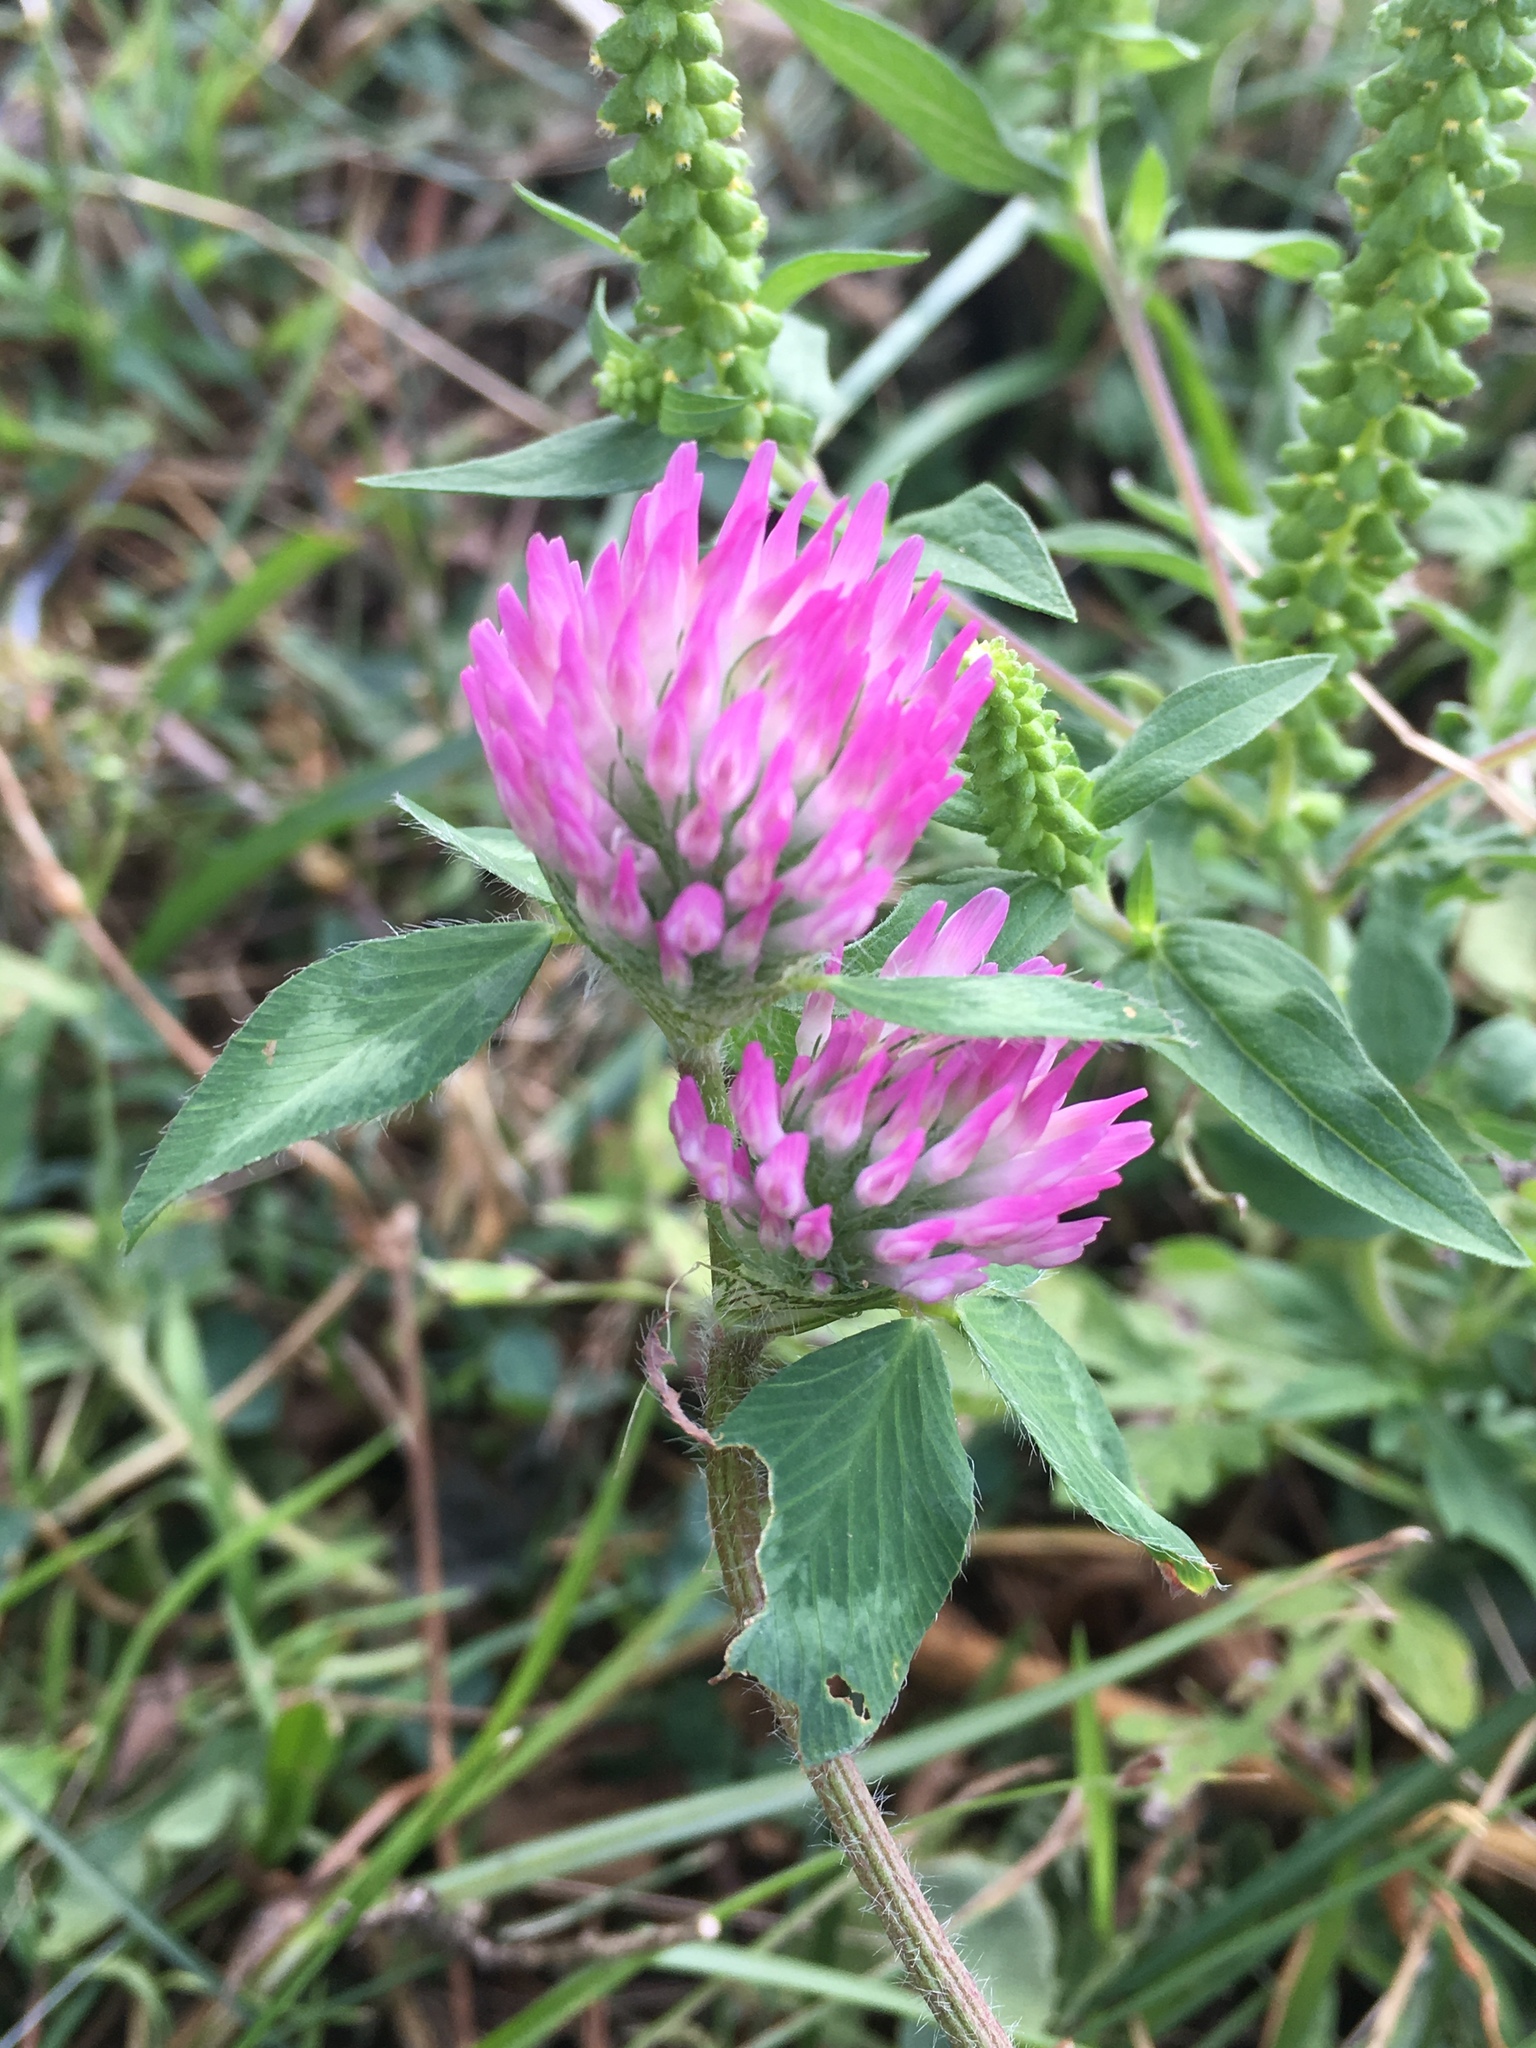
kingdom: Plantae
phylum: Tracheophyta
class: Magnoliopsida
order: Fabales
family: Fabaceae
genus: Trifolium
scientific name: Trifolium pratense
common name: Red clover
